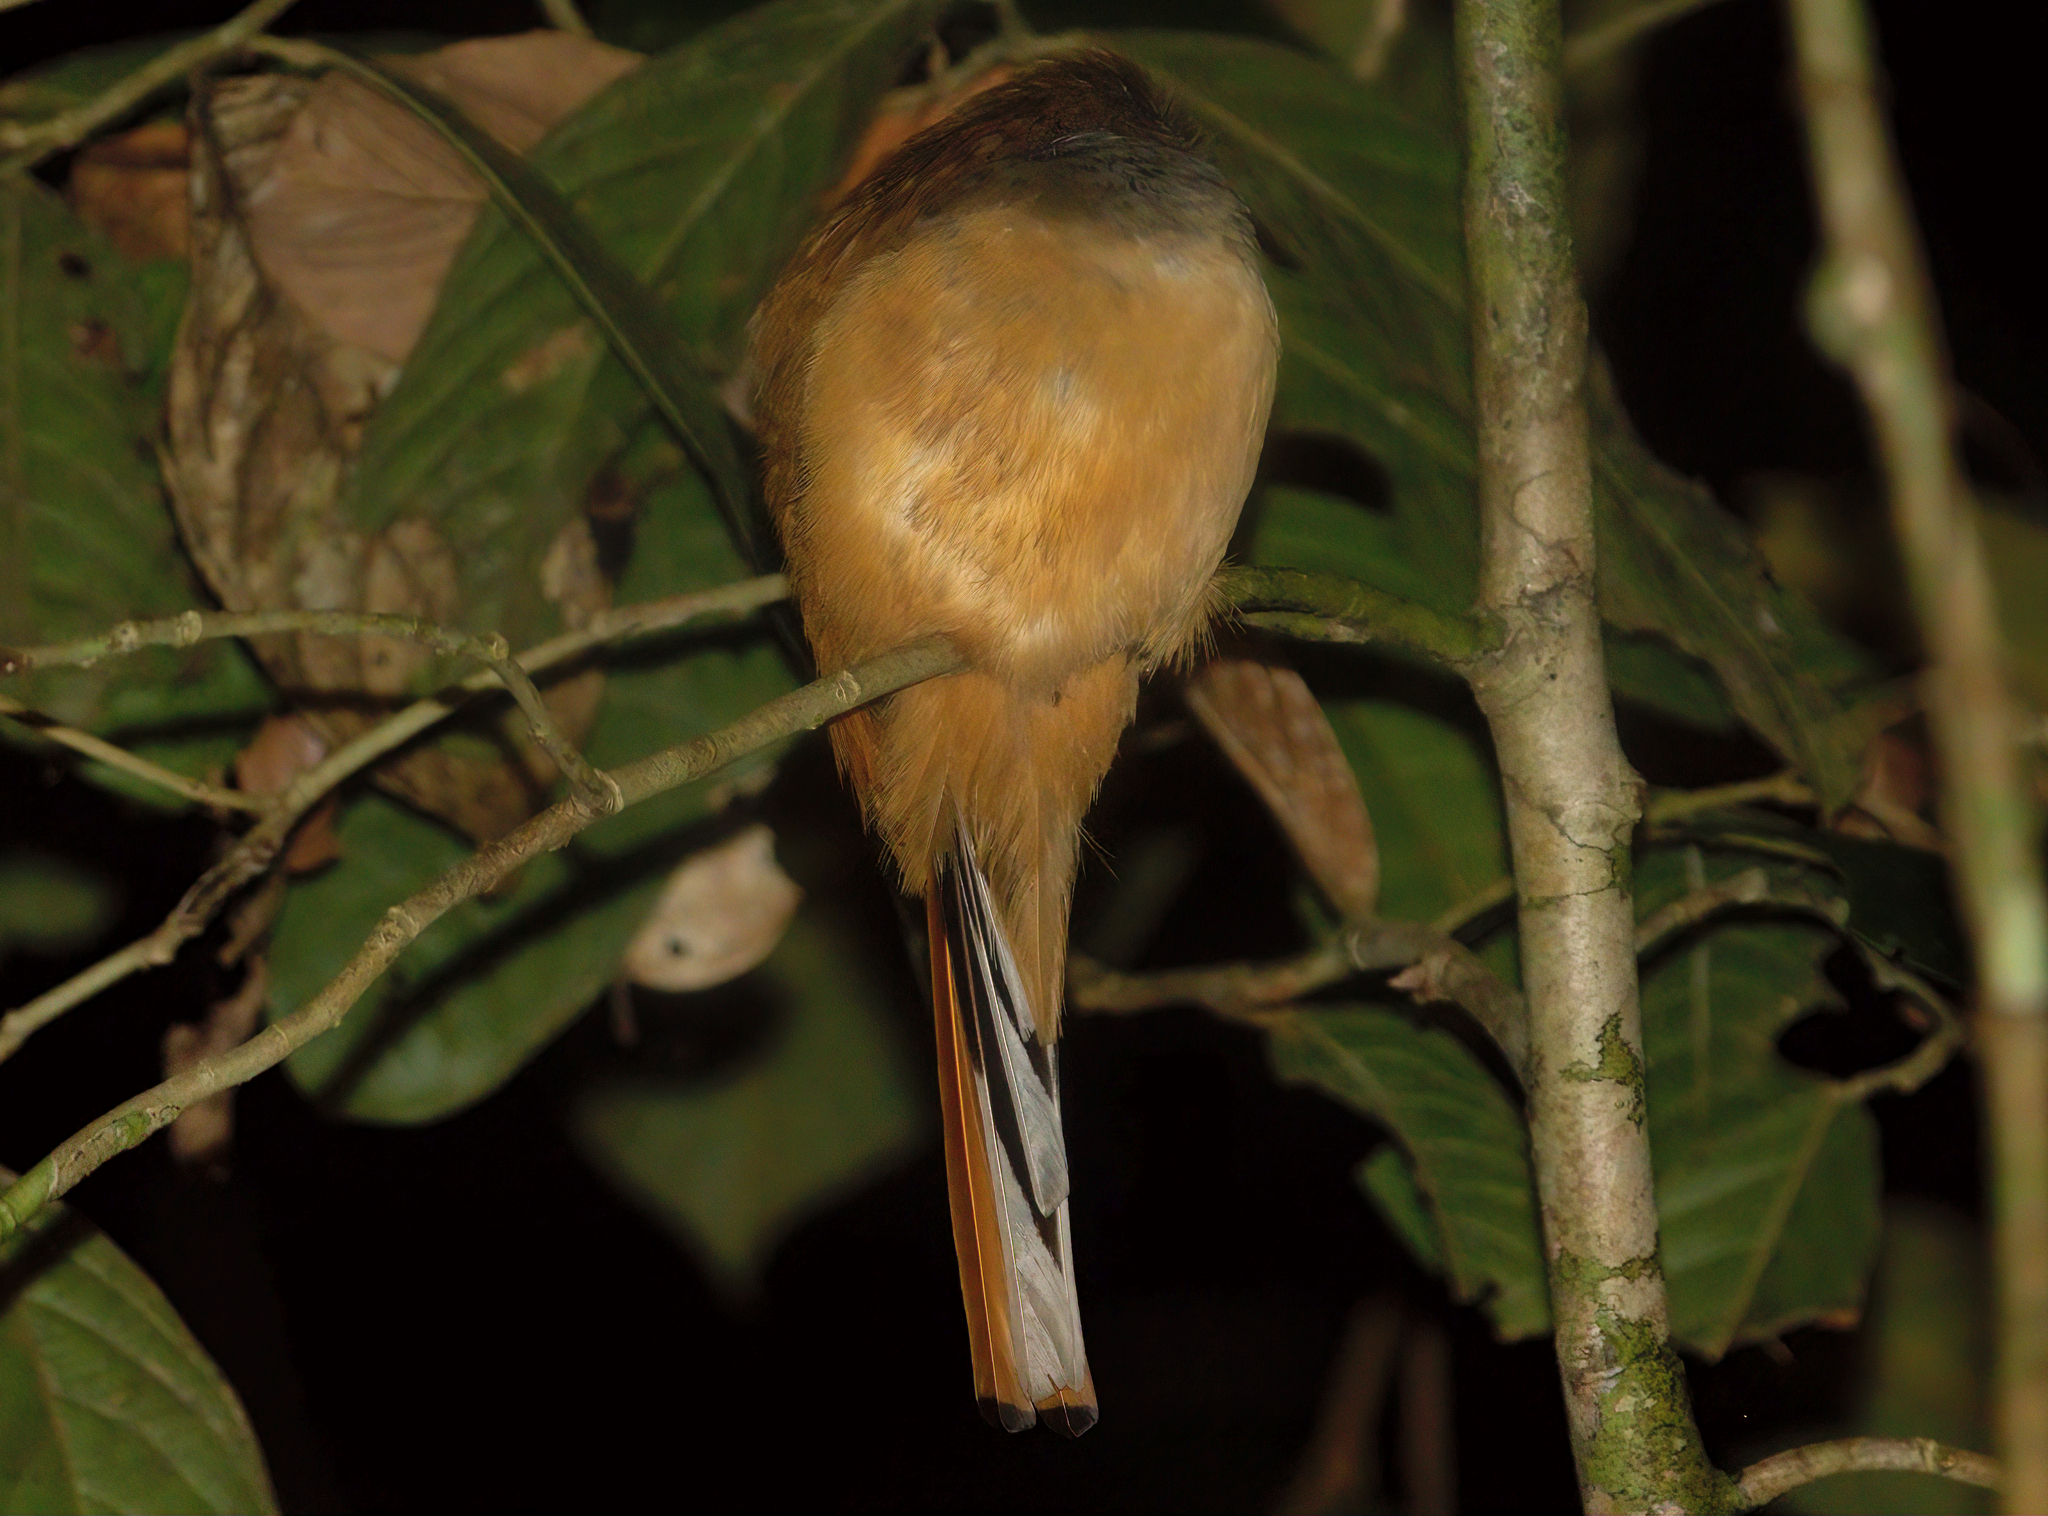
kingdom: Animalia
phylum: Chordata
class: Aves
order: Trogoniformes
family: Trogonidae
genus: Harpactes
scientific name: Harpactes kasumba
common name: Red-naped trogon
